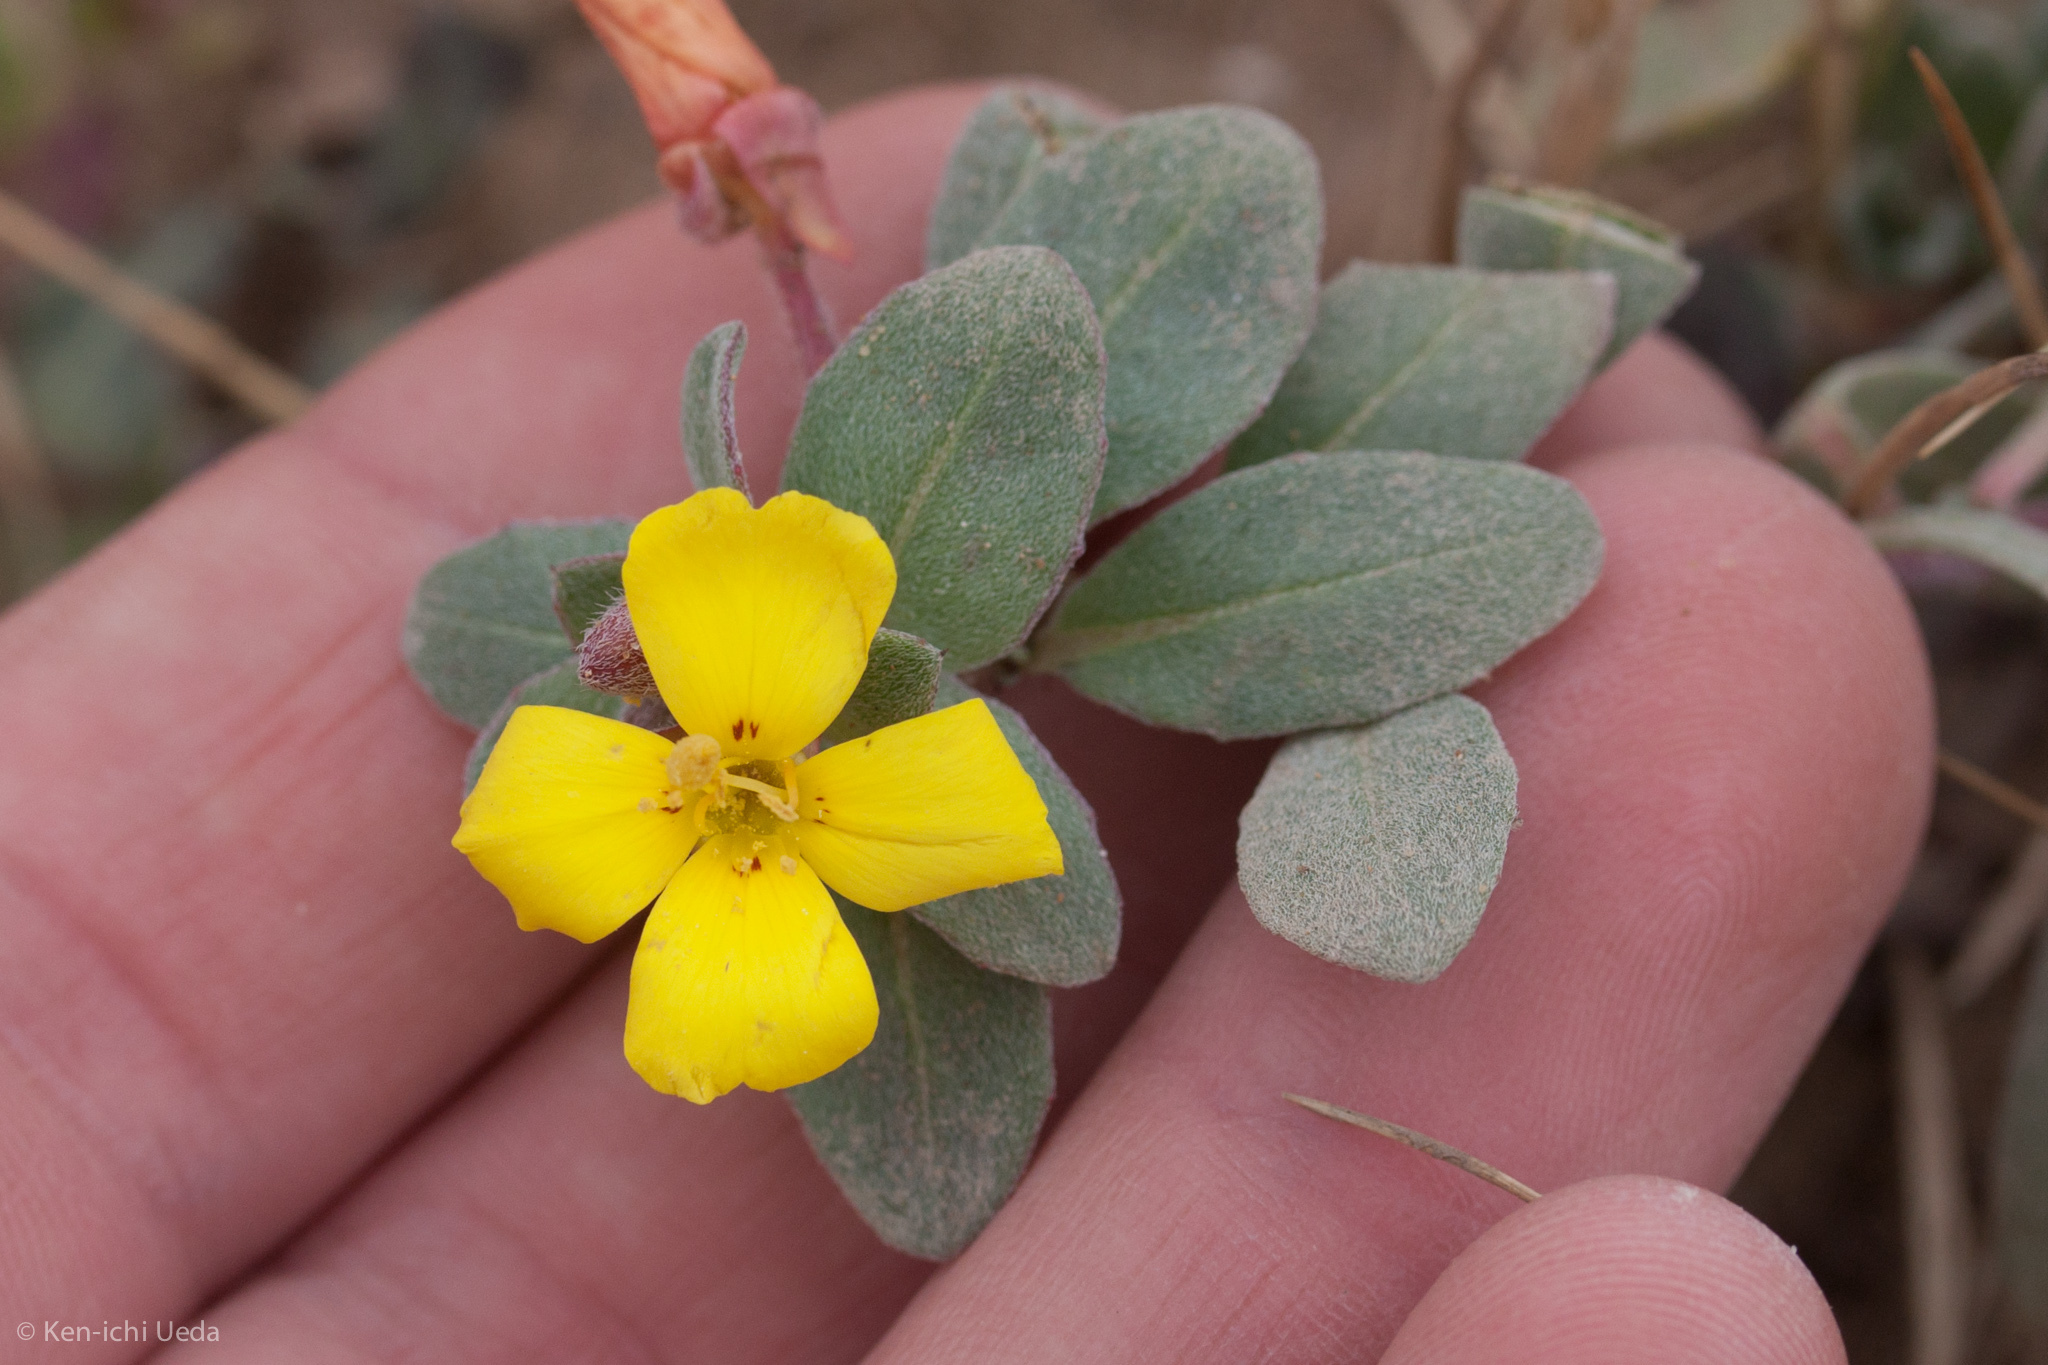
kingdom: Plantae
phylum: Tracheophyta
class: Magnoliopsida
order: Myrtales
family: Onagraceae
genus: Camissoniopsis
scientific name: Camissoniopsis cheiranthifolia
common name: Beach suncup
